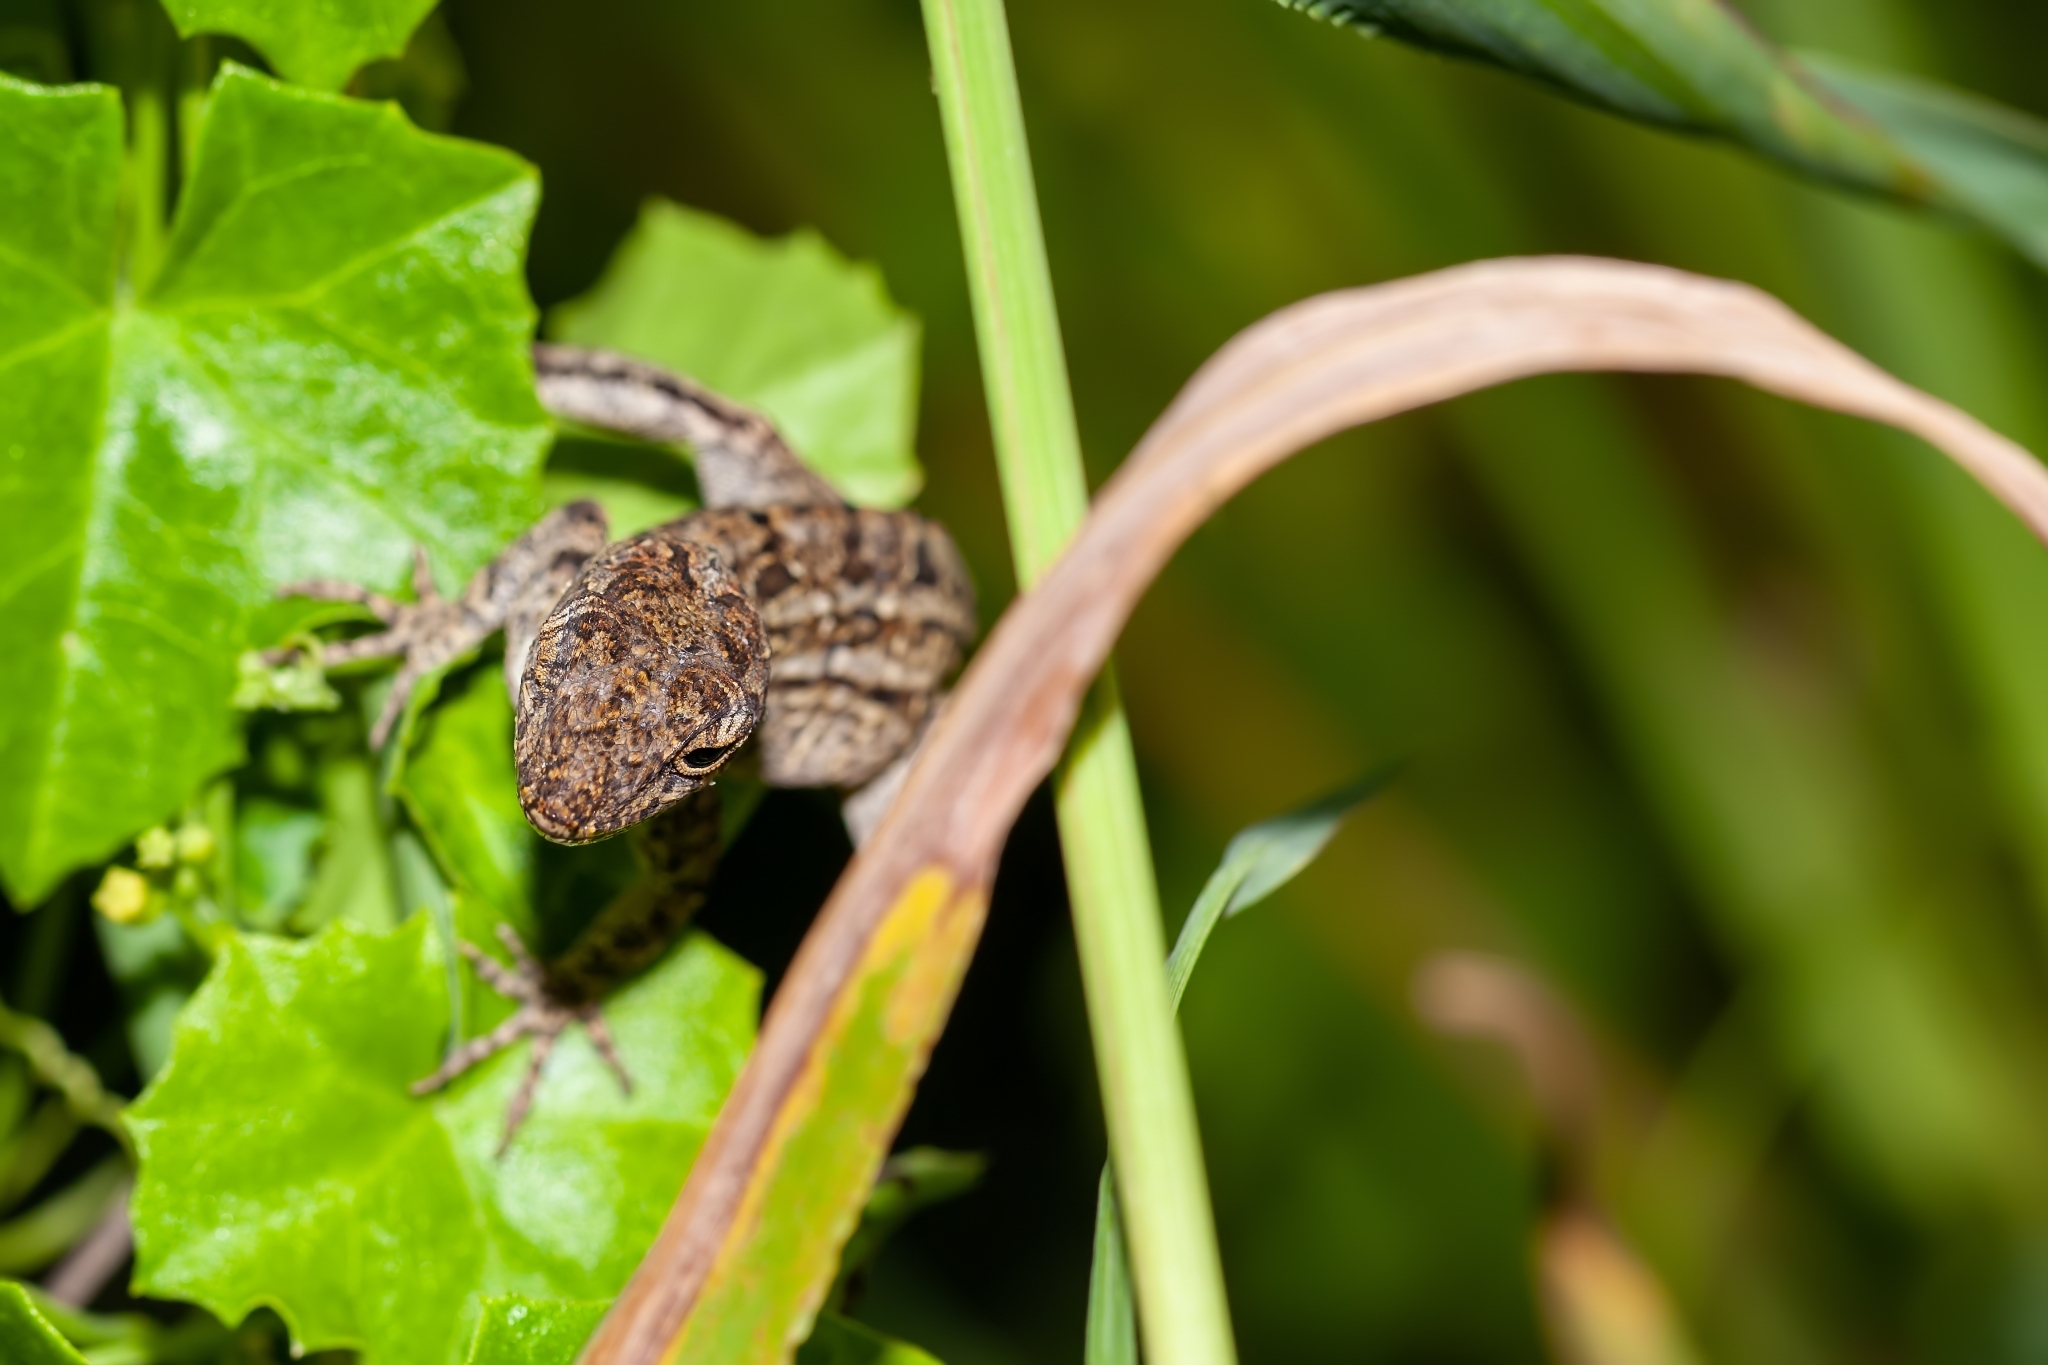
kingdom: Animalia
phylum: Chordata
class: Squamata
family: Dactyloidae
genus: Anolis
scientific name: Anolis sagrei
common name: Brown anole
